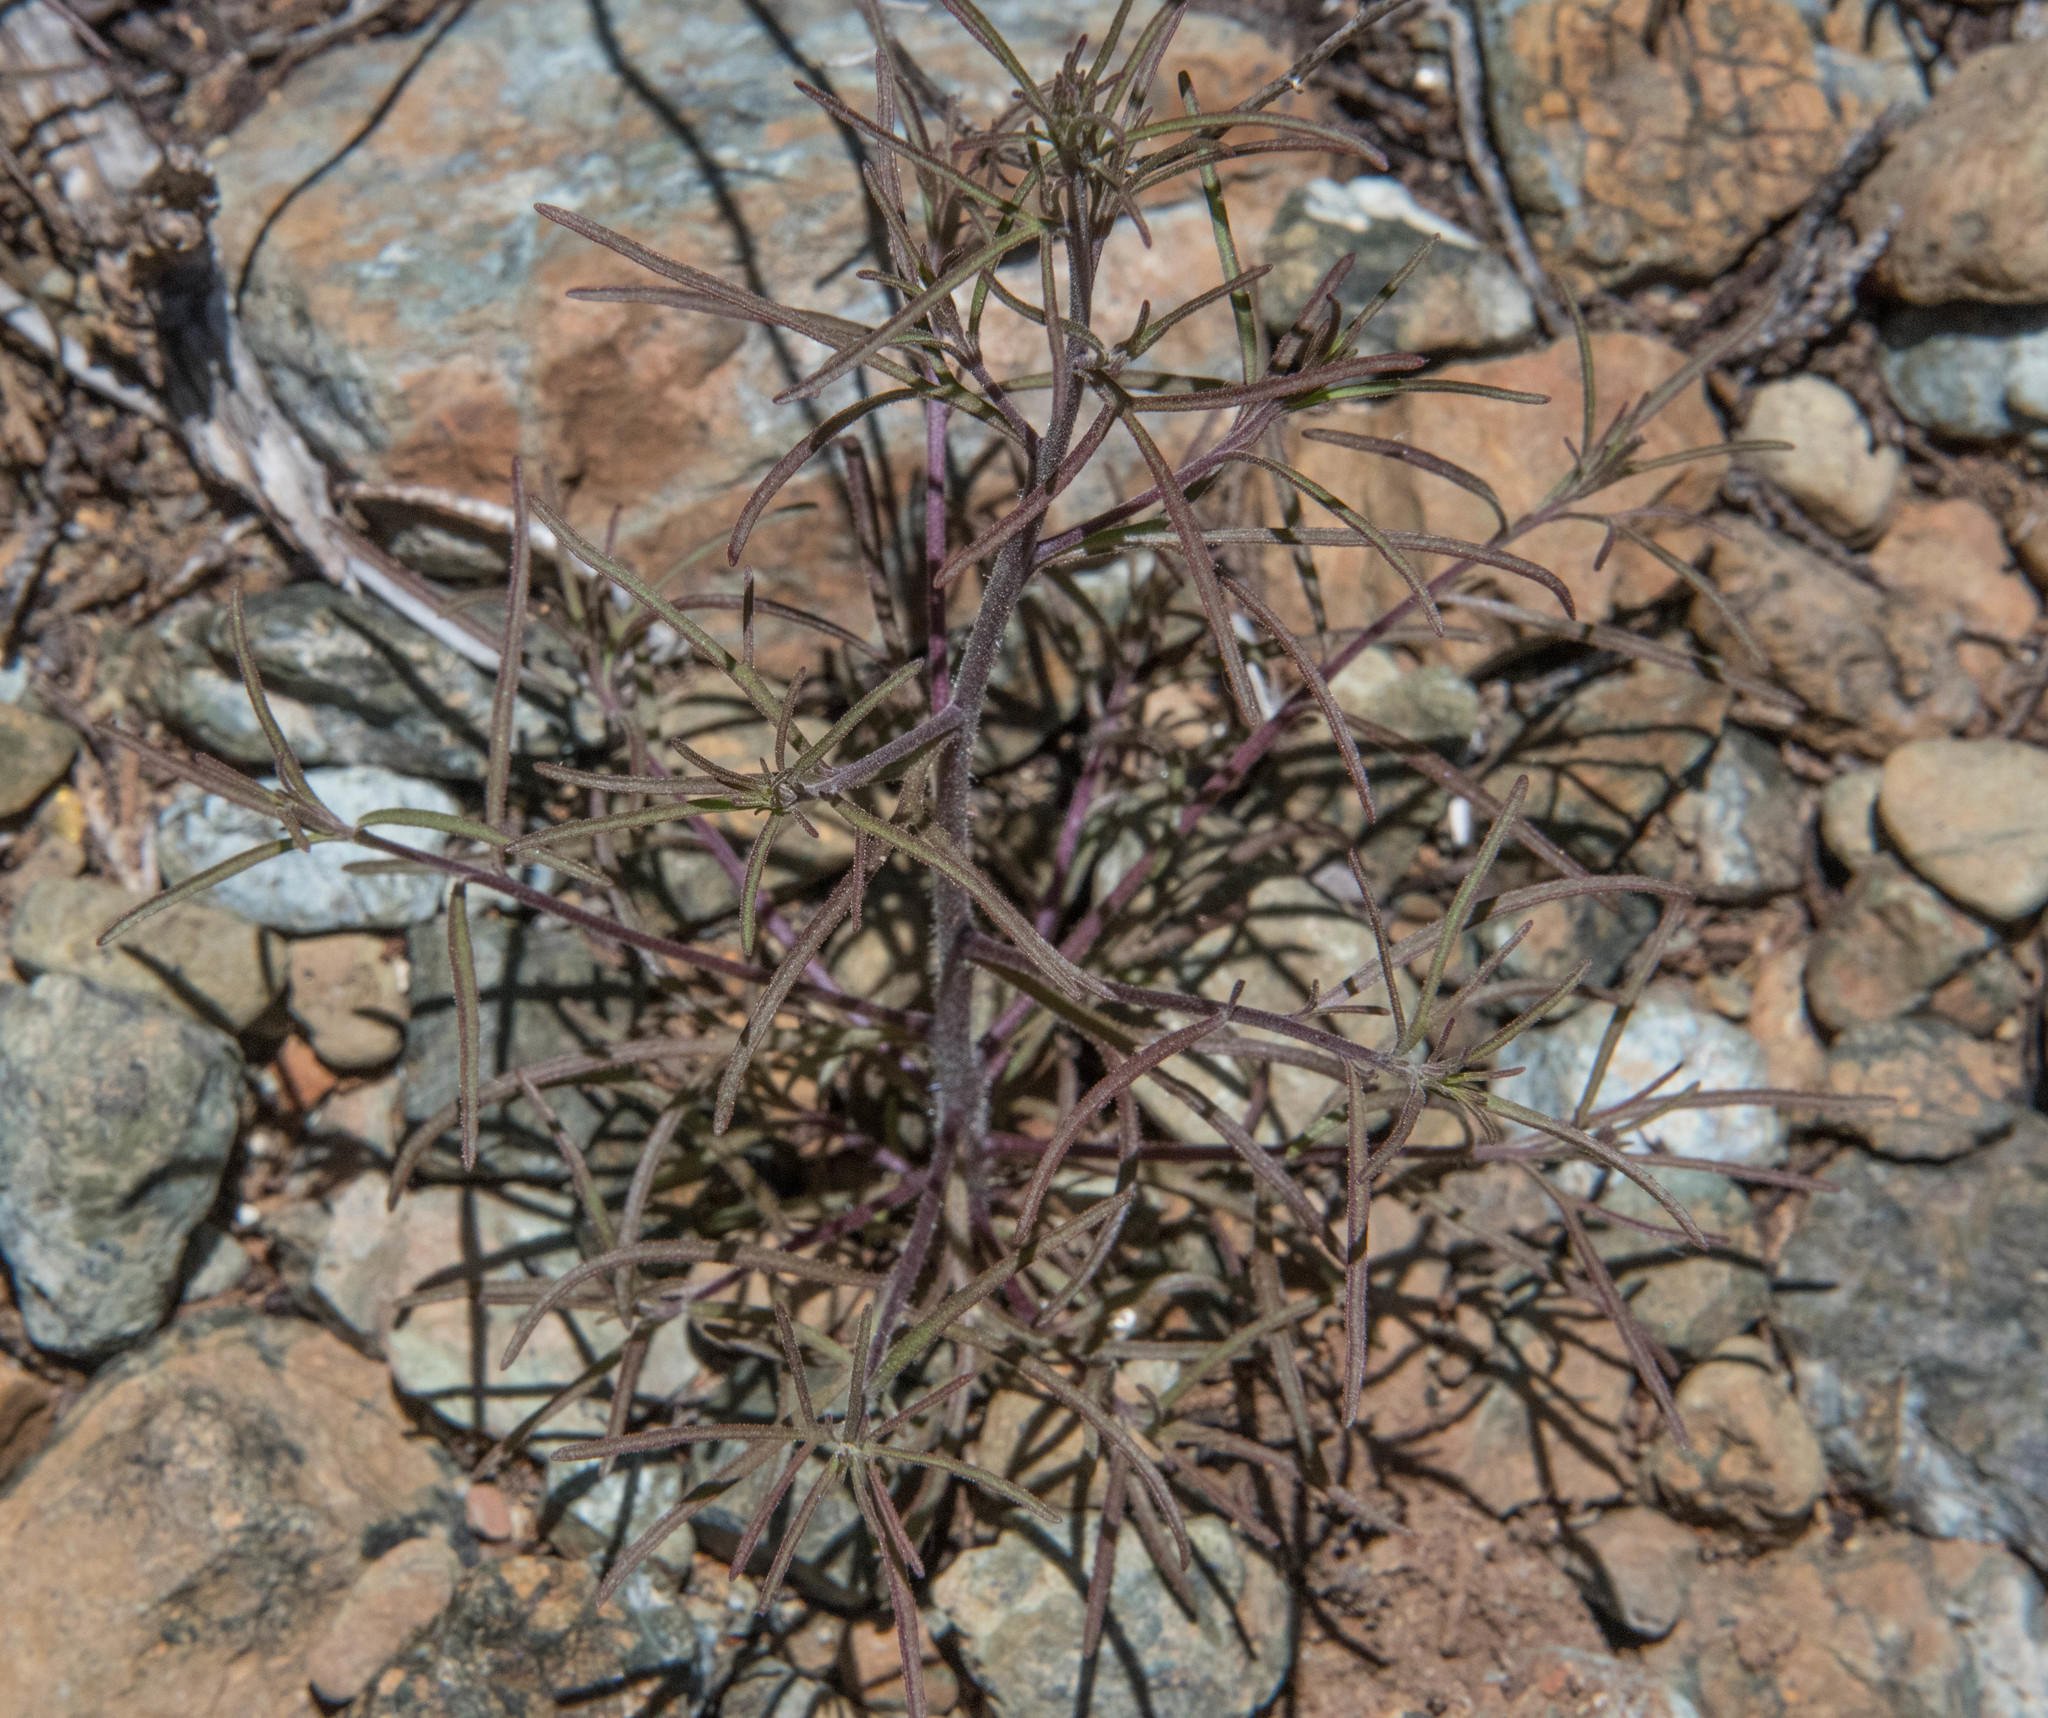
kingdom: Plantae
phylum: Tracheophyta
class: Magnoliopsida
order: Lamiales
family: Orobanchaceae
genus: Cordylanthus
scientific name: Cordylanthus pringlei
